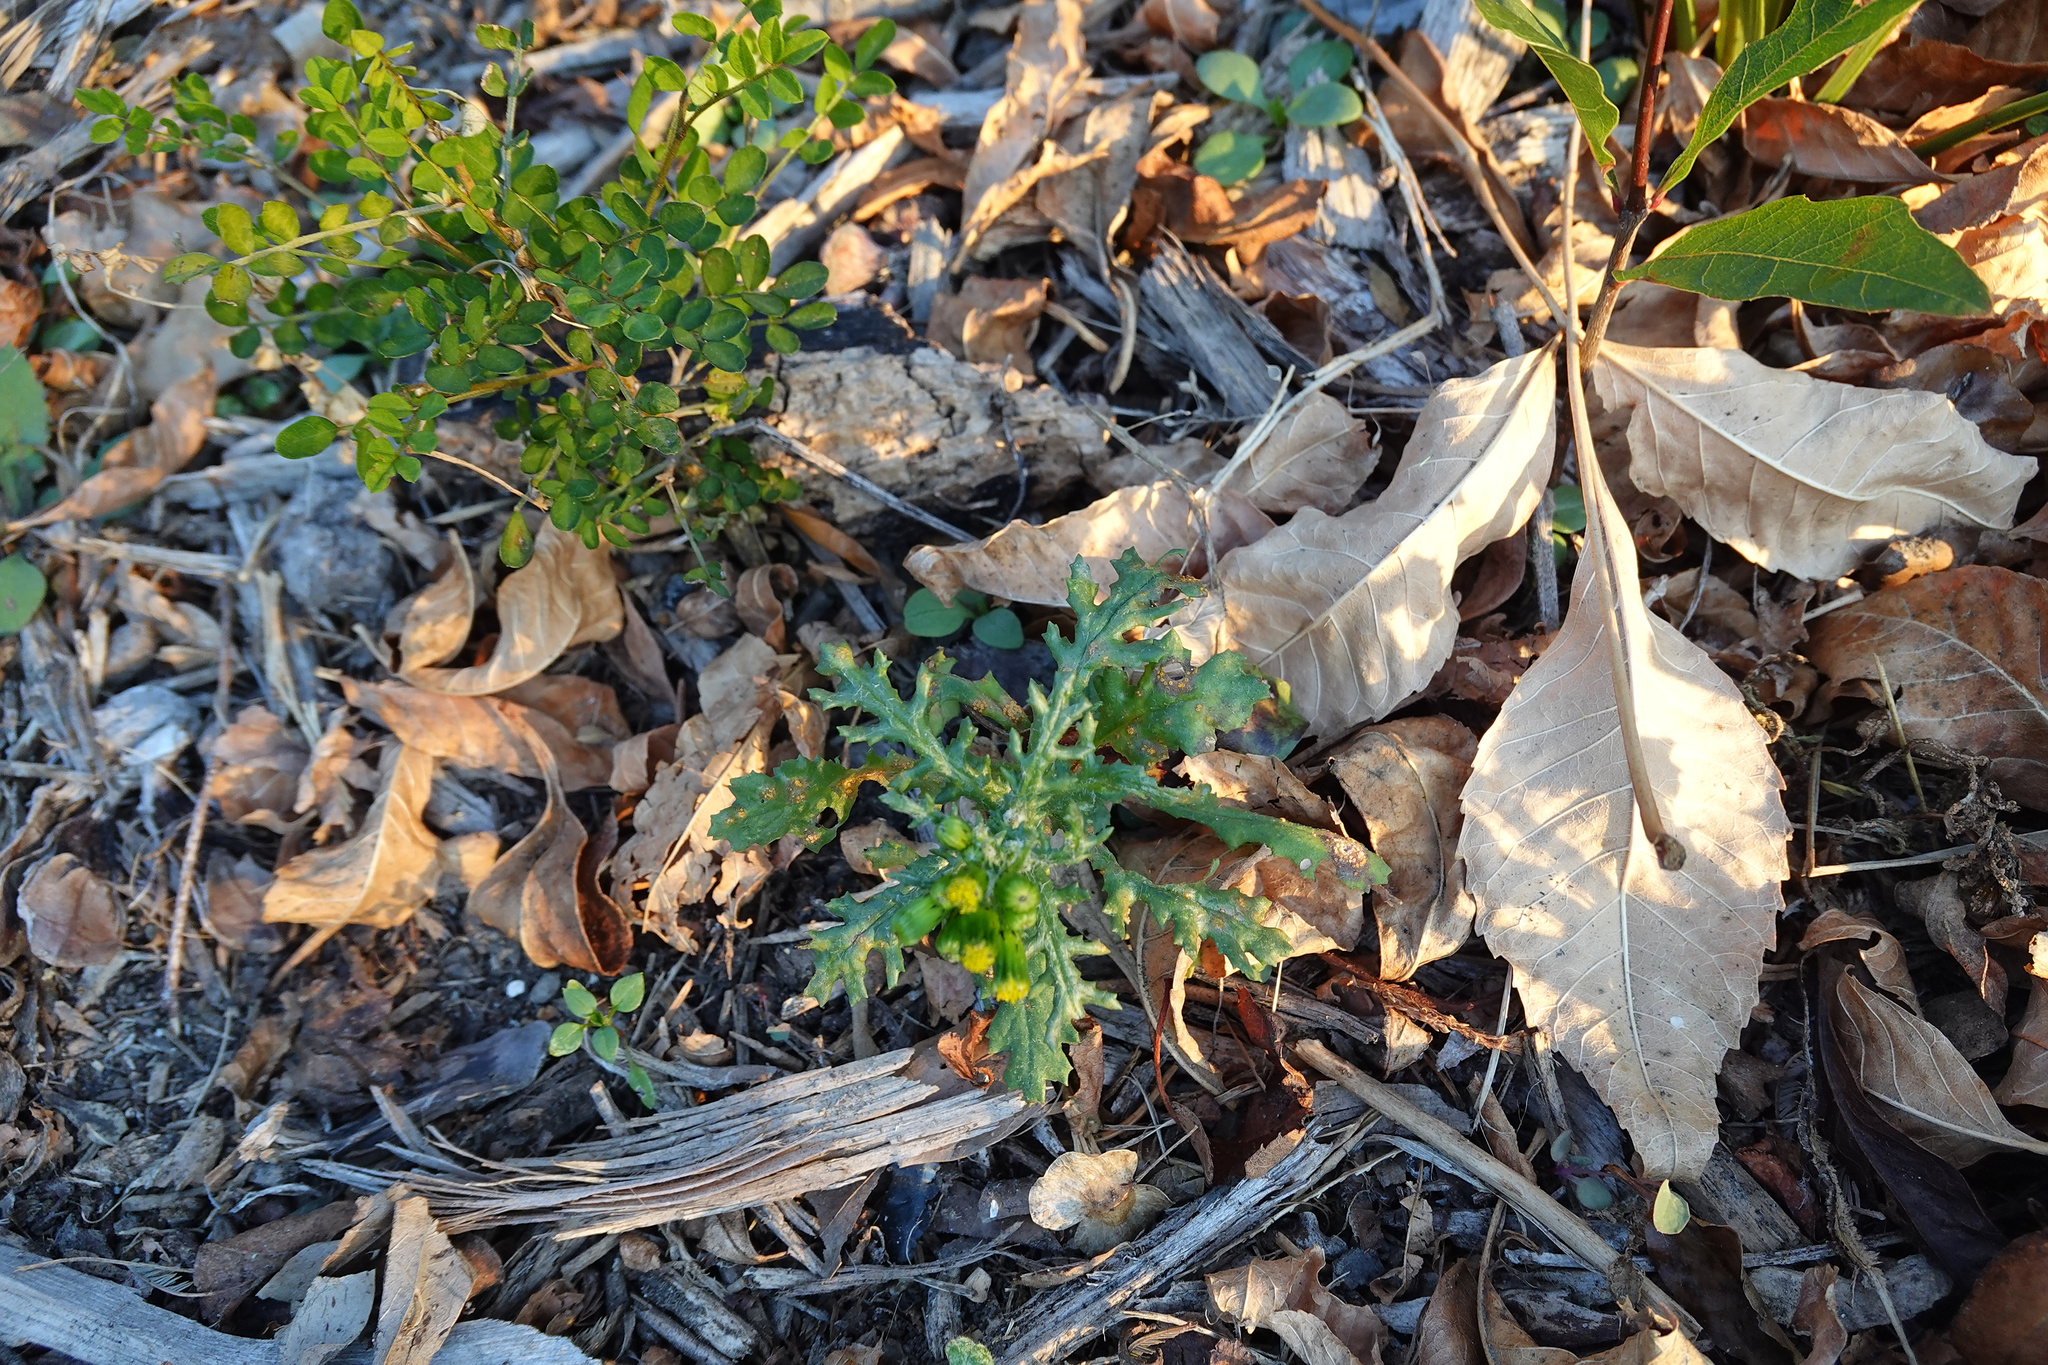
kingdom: Plantae
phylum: Tracheophyta
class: Magnoliopsida
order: Asterales
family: Asteraceae
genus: Senecio
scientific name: Senecio vulgaris
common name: Old-man-in-the-spring
